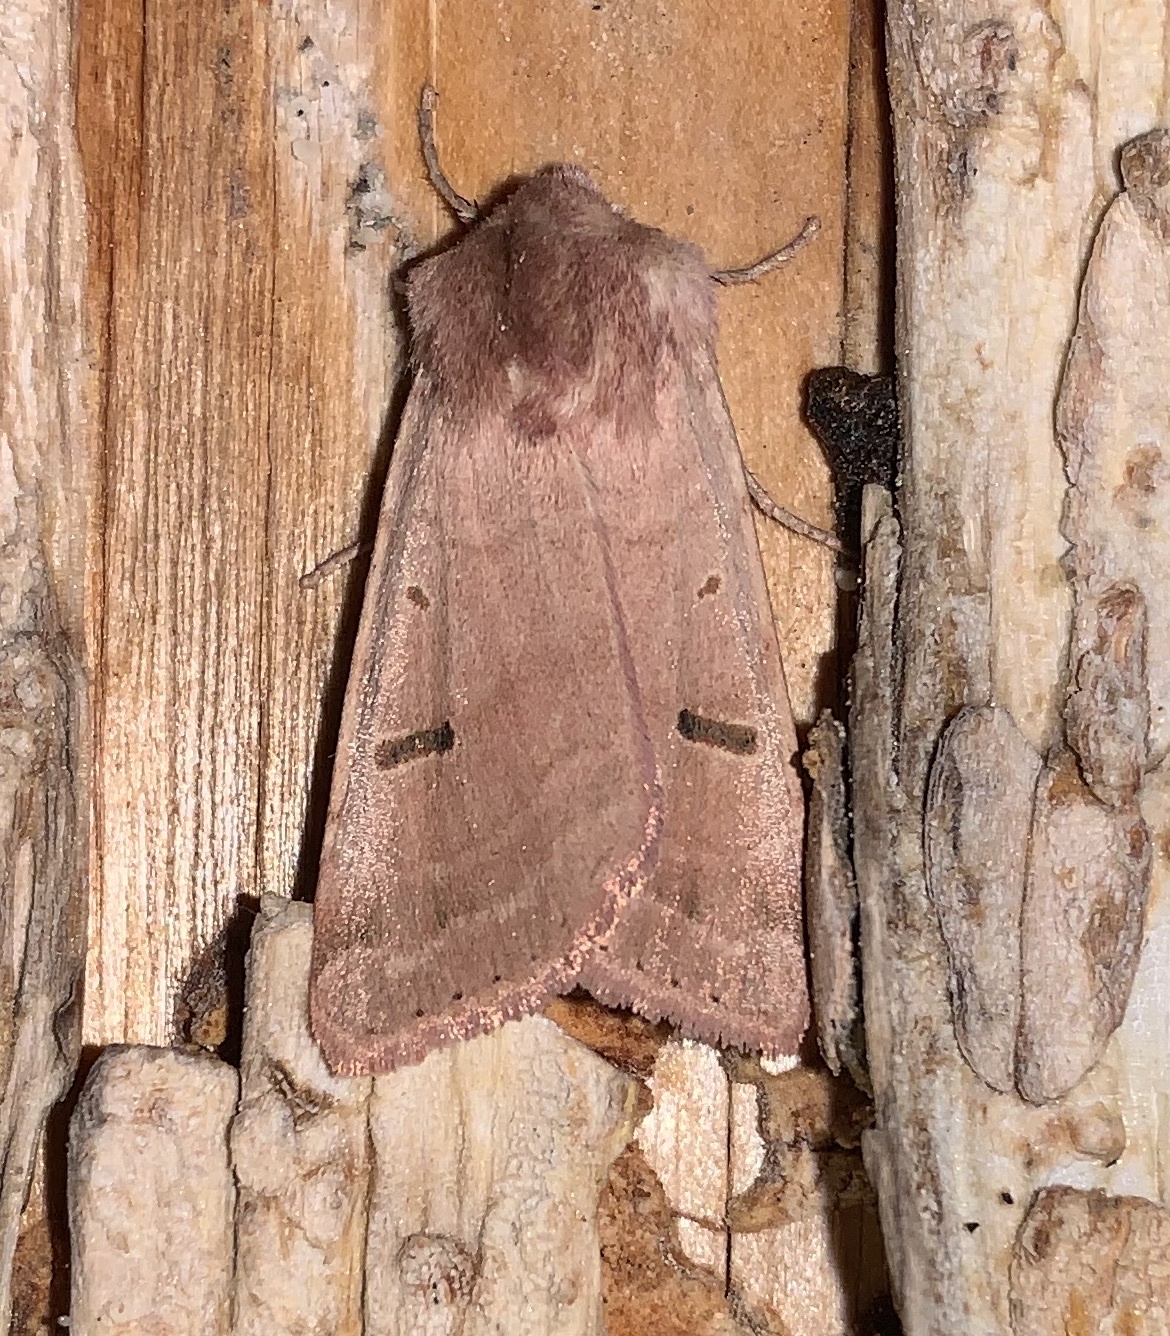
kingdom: Animalia
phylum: Arthropoda
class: Insecta
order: Lepidoptera
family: Noctuidae
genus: Dichagyris
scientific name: Dichagyris variabilis
